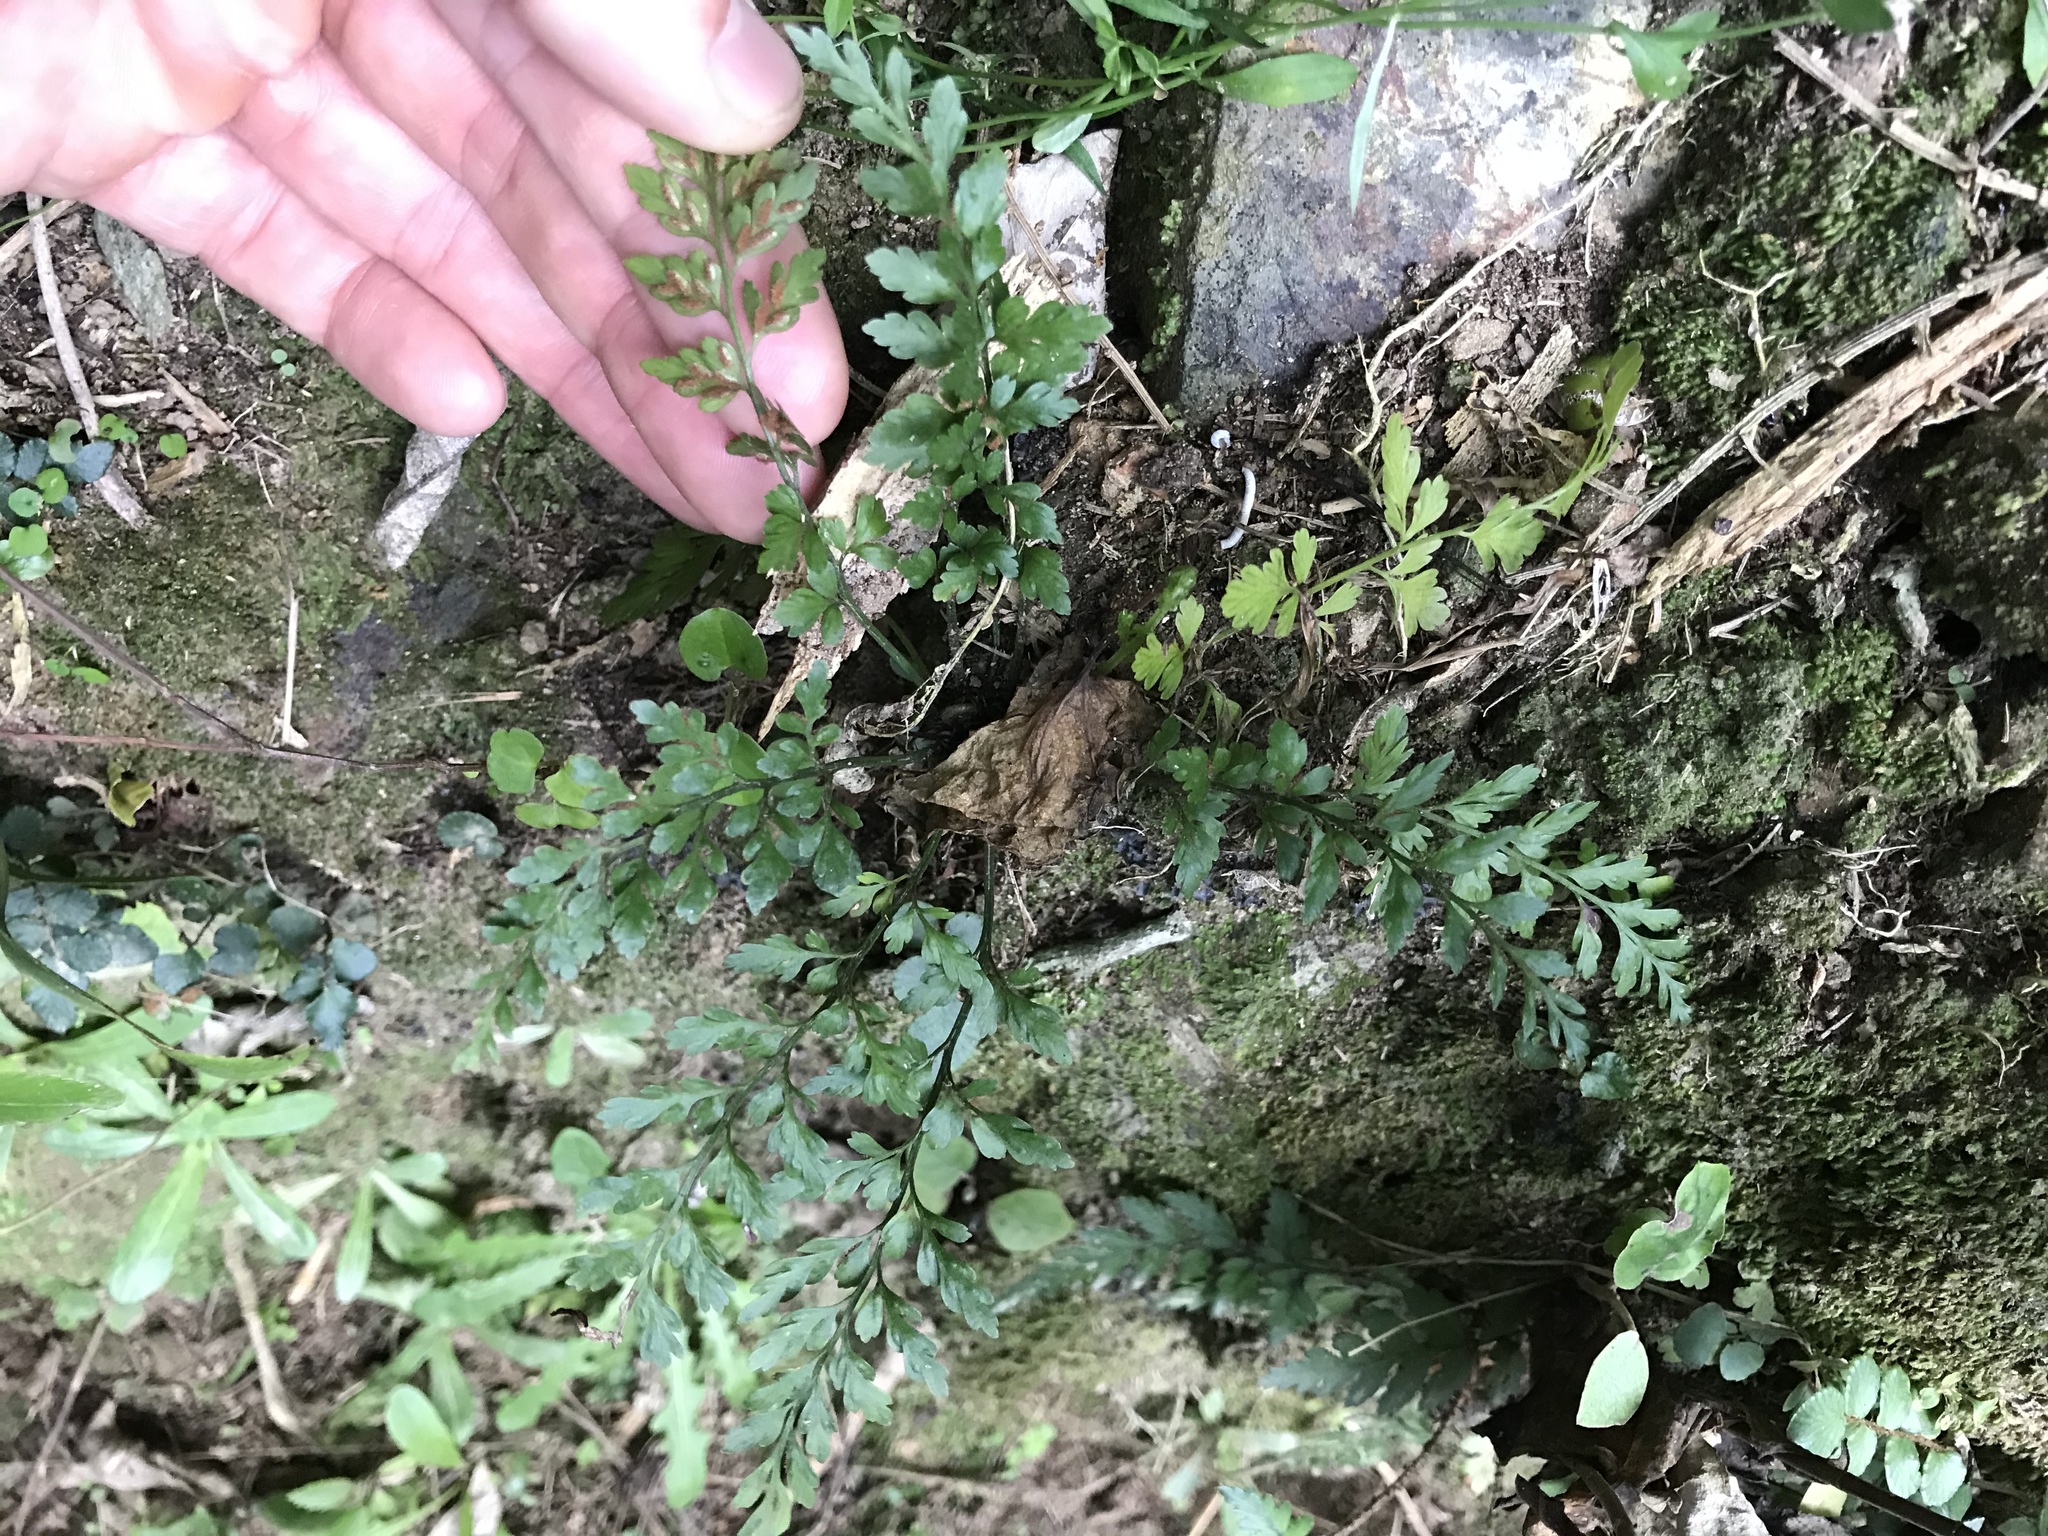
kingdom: Plantae
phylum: Tracheophyta
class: Polypodiopsida
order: Polypodiales
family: Aspleniaceae
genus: Asplenium
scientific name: Asplenium hookerianum
